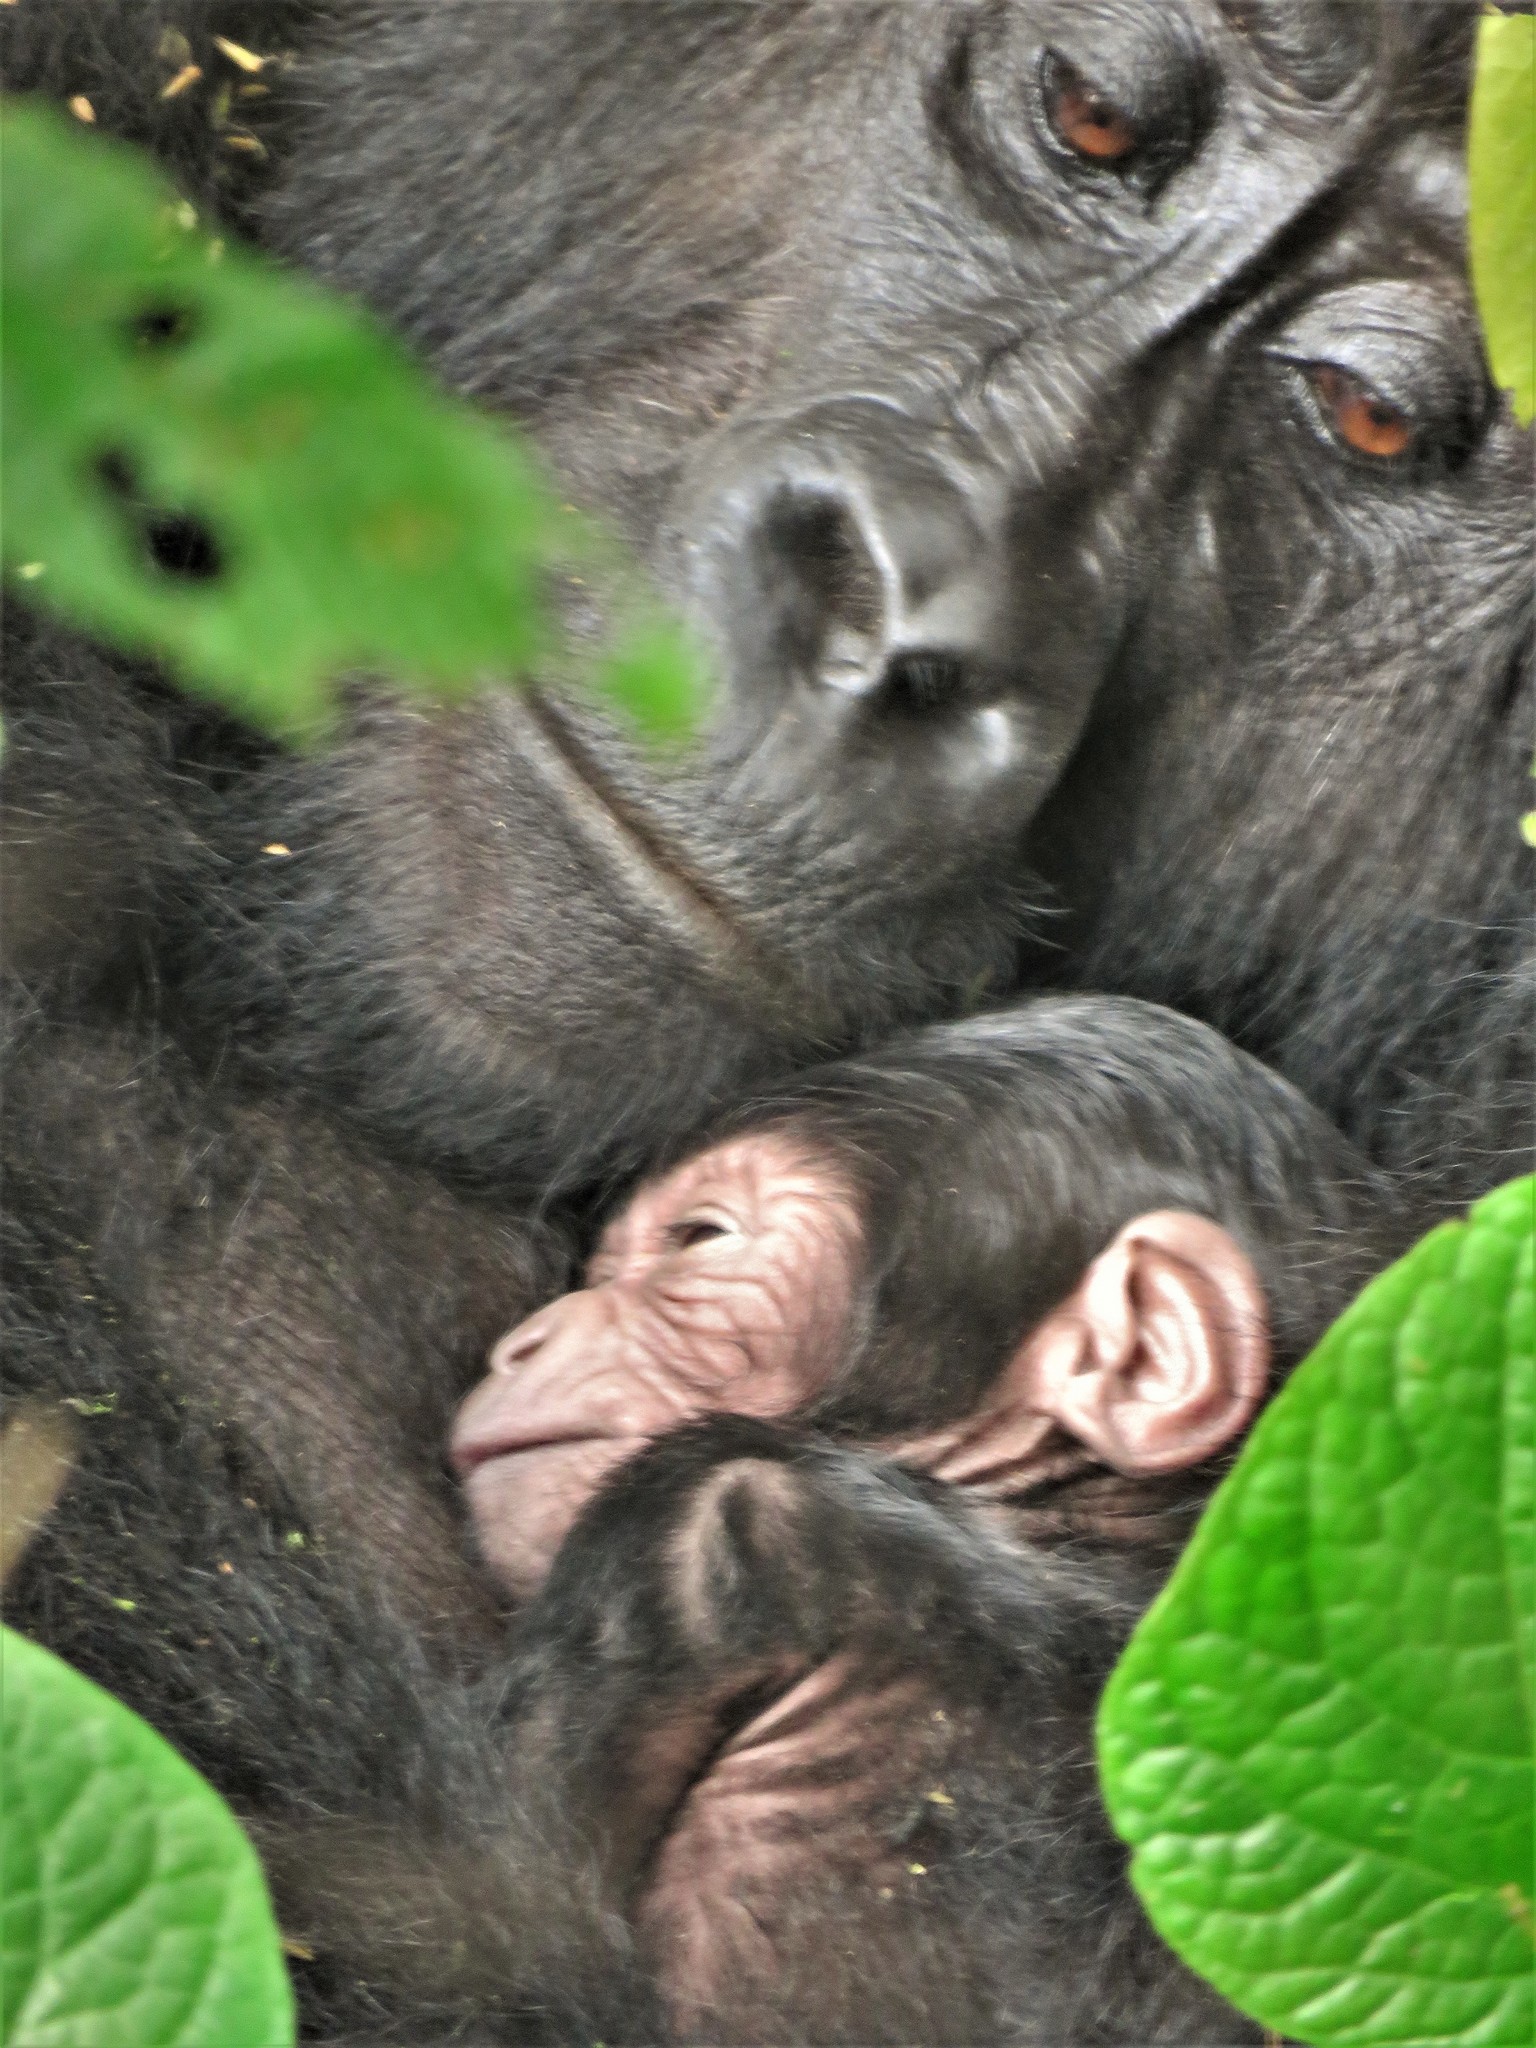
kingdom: Animalia
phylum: Chordata
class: Mammalia
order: Primates
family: Hominidae
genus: Gorilla
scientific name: Gorilla beringei
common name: Eastern gorilla
